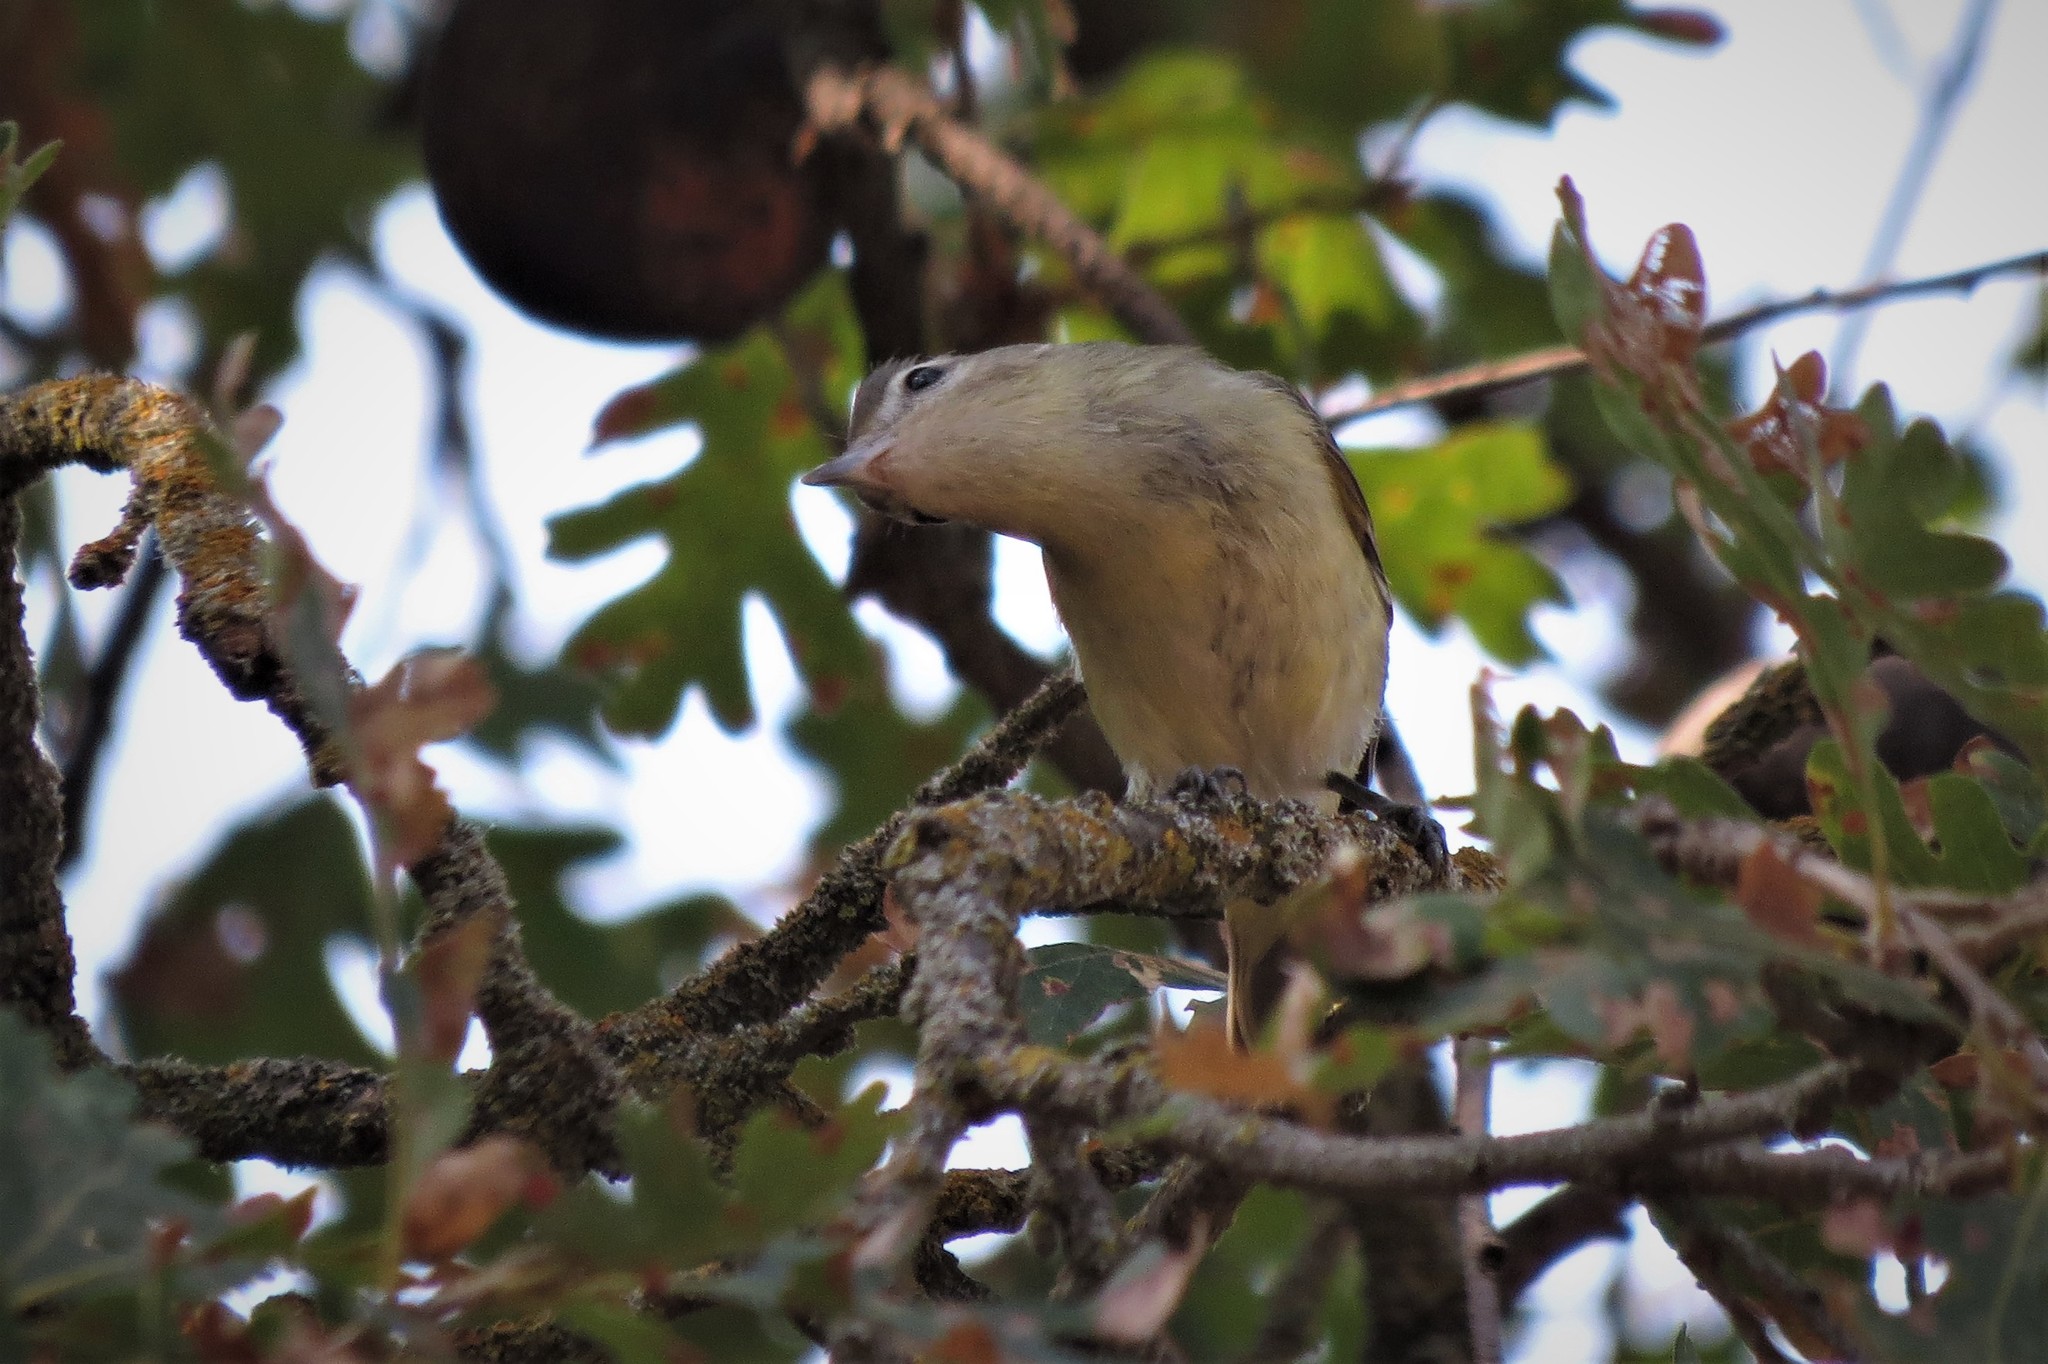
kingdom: Animalia
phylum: Chordata
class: Aves
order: Passeriformes
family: Vireonidae
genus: Vireo
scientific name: Vireo gilvus
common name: Warbling vireo
